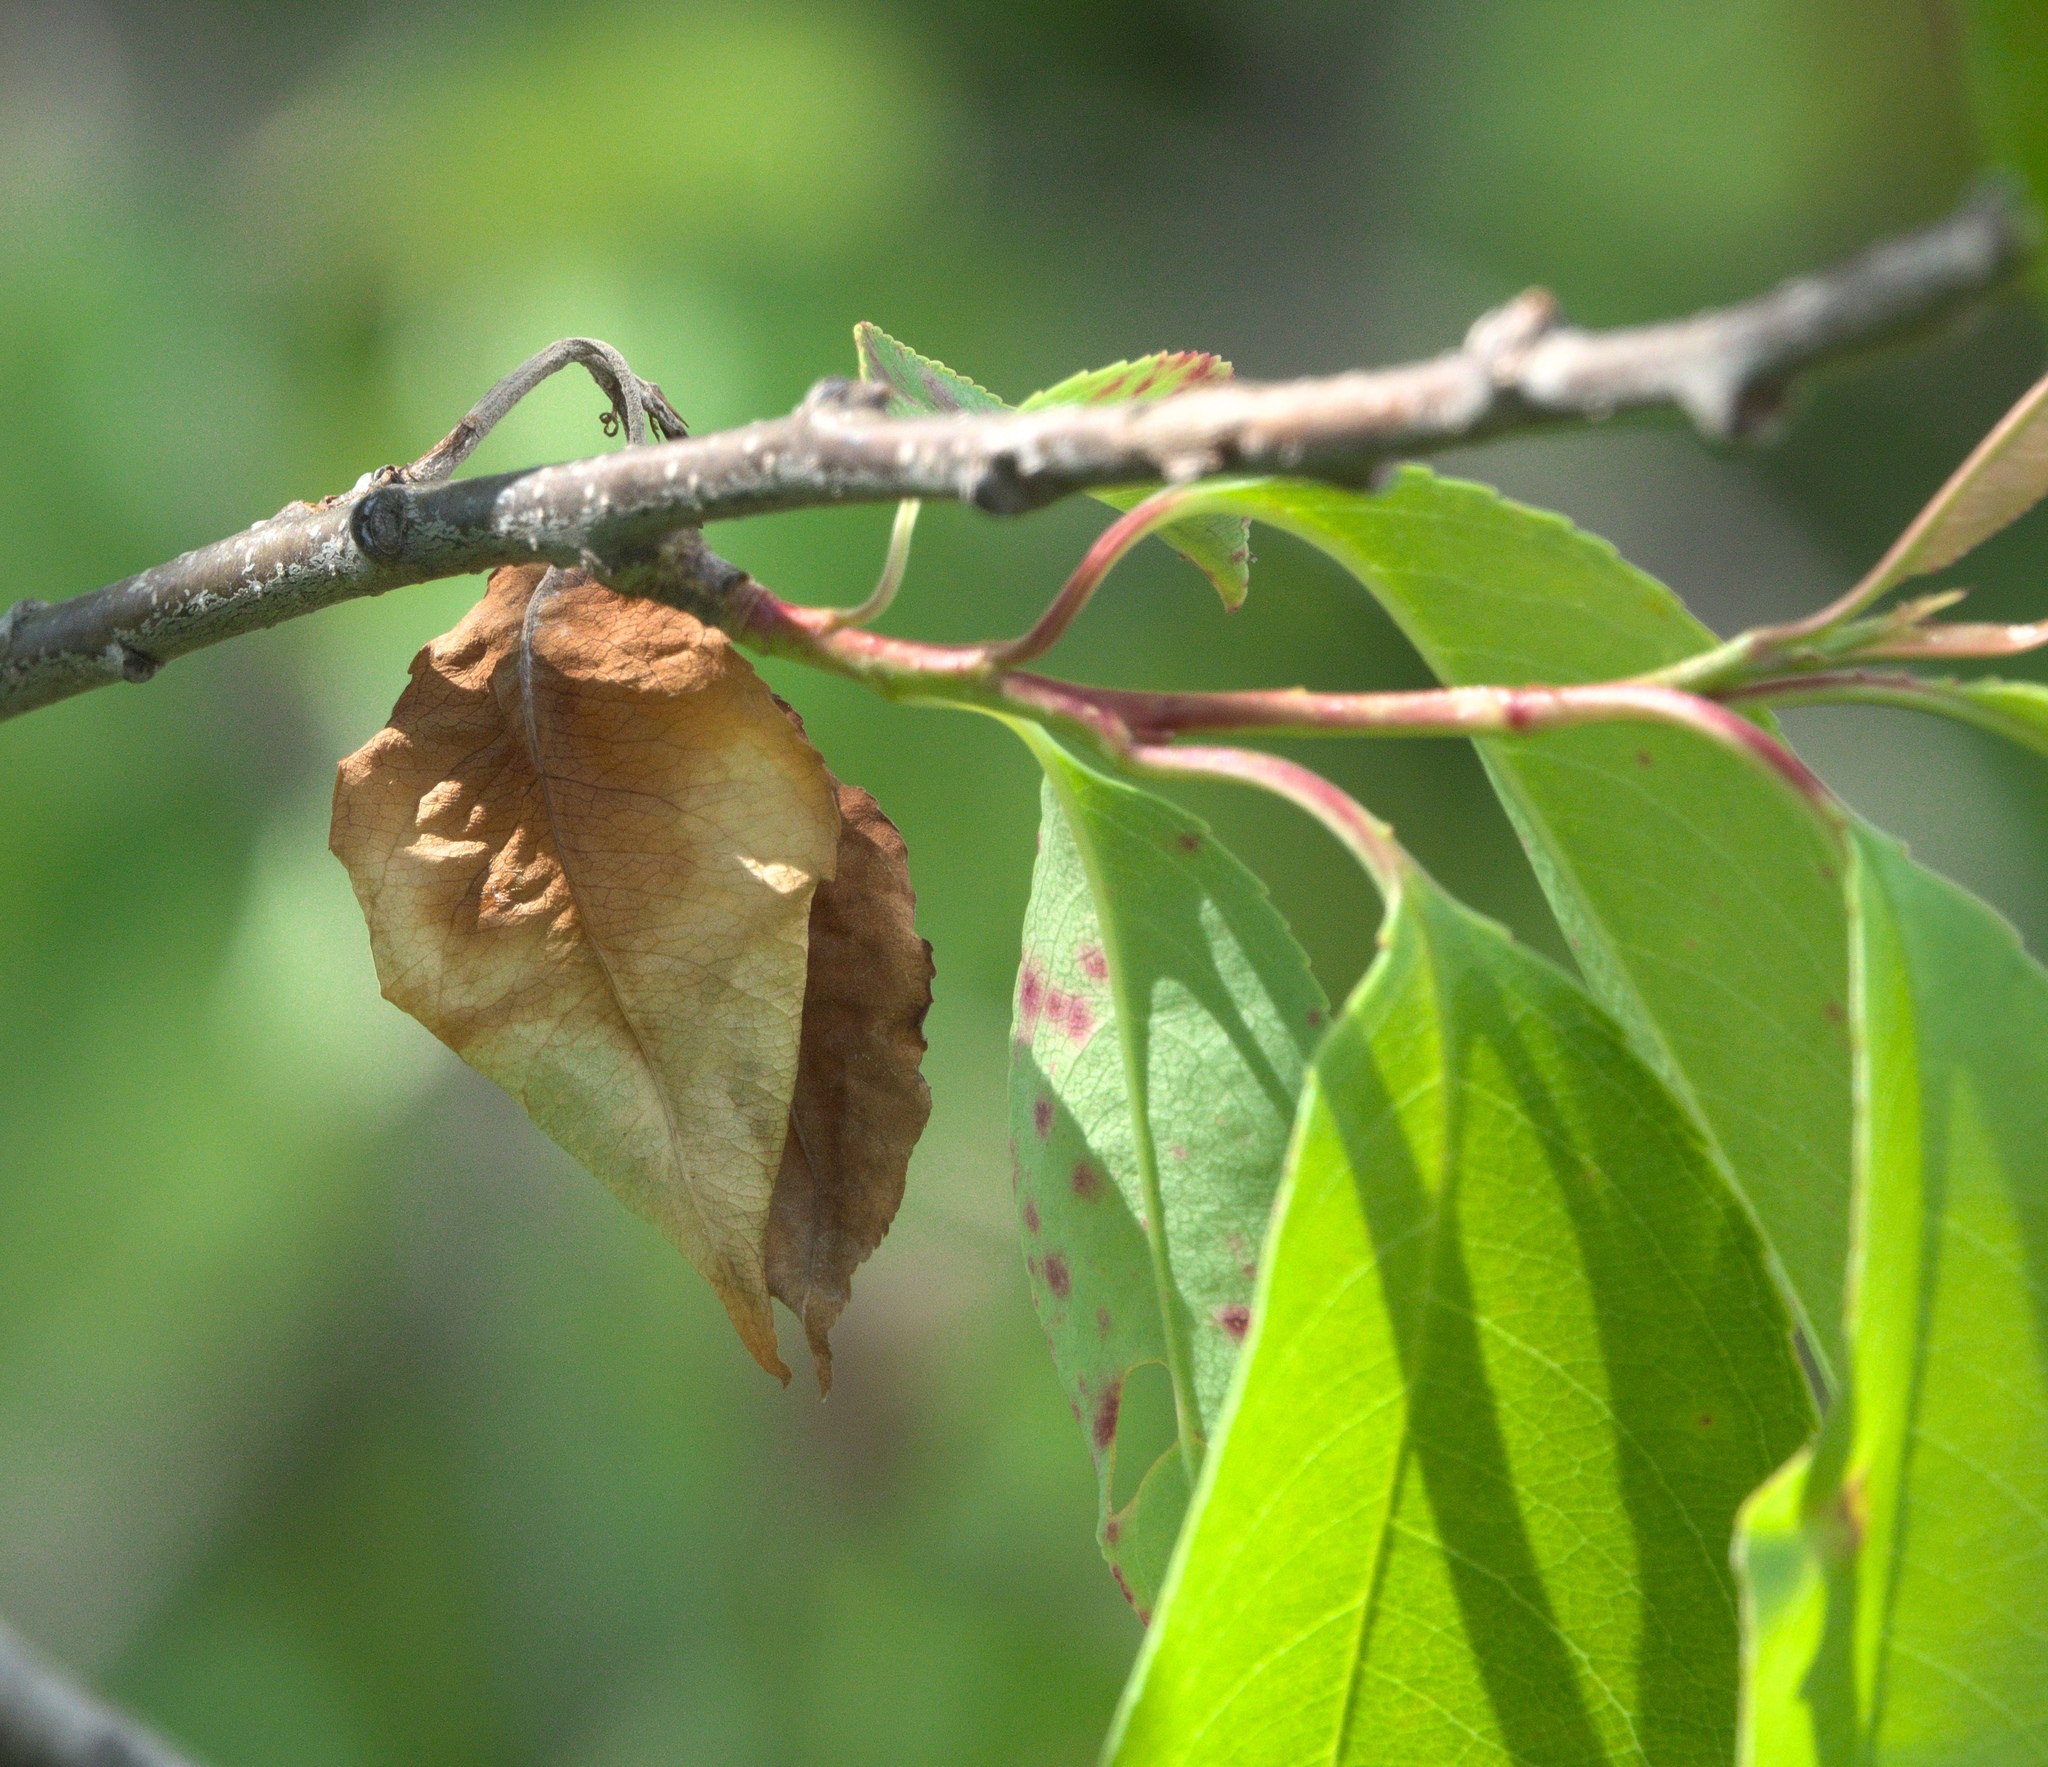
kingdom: Plantae
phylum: Tracheophyta
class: Magnoliopsida
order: Rosales
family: Rosaceae
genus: Prunus
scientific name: Prunus serotina
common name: Black cherry
